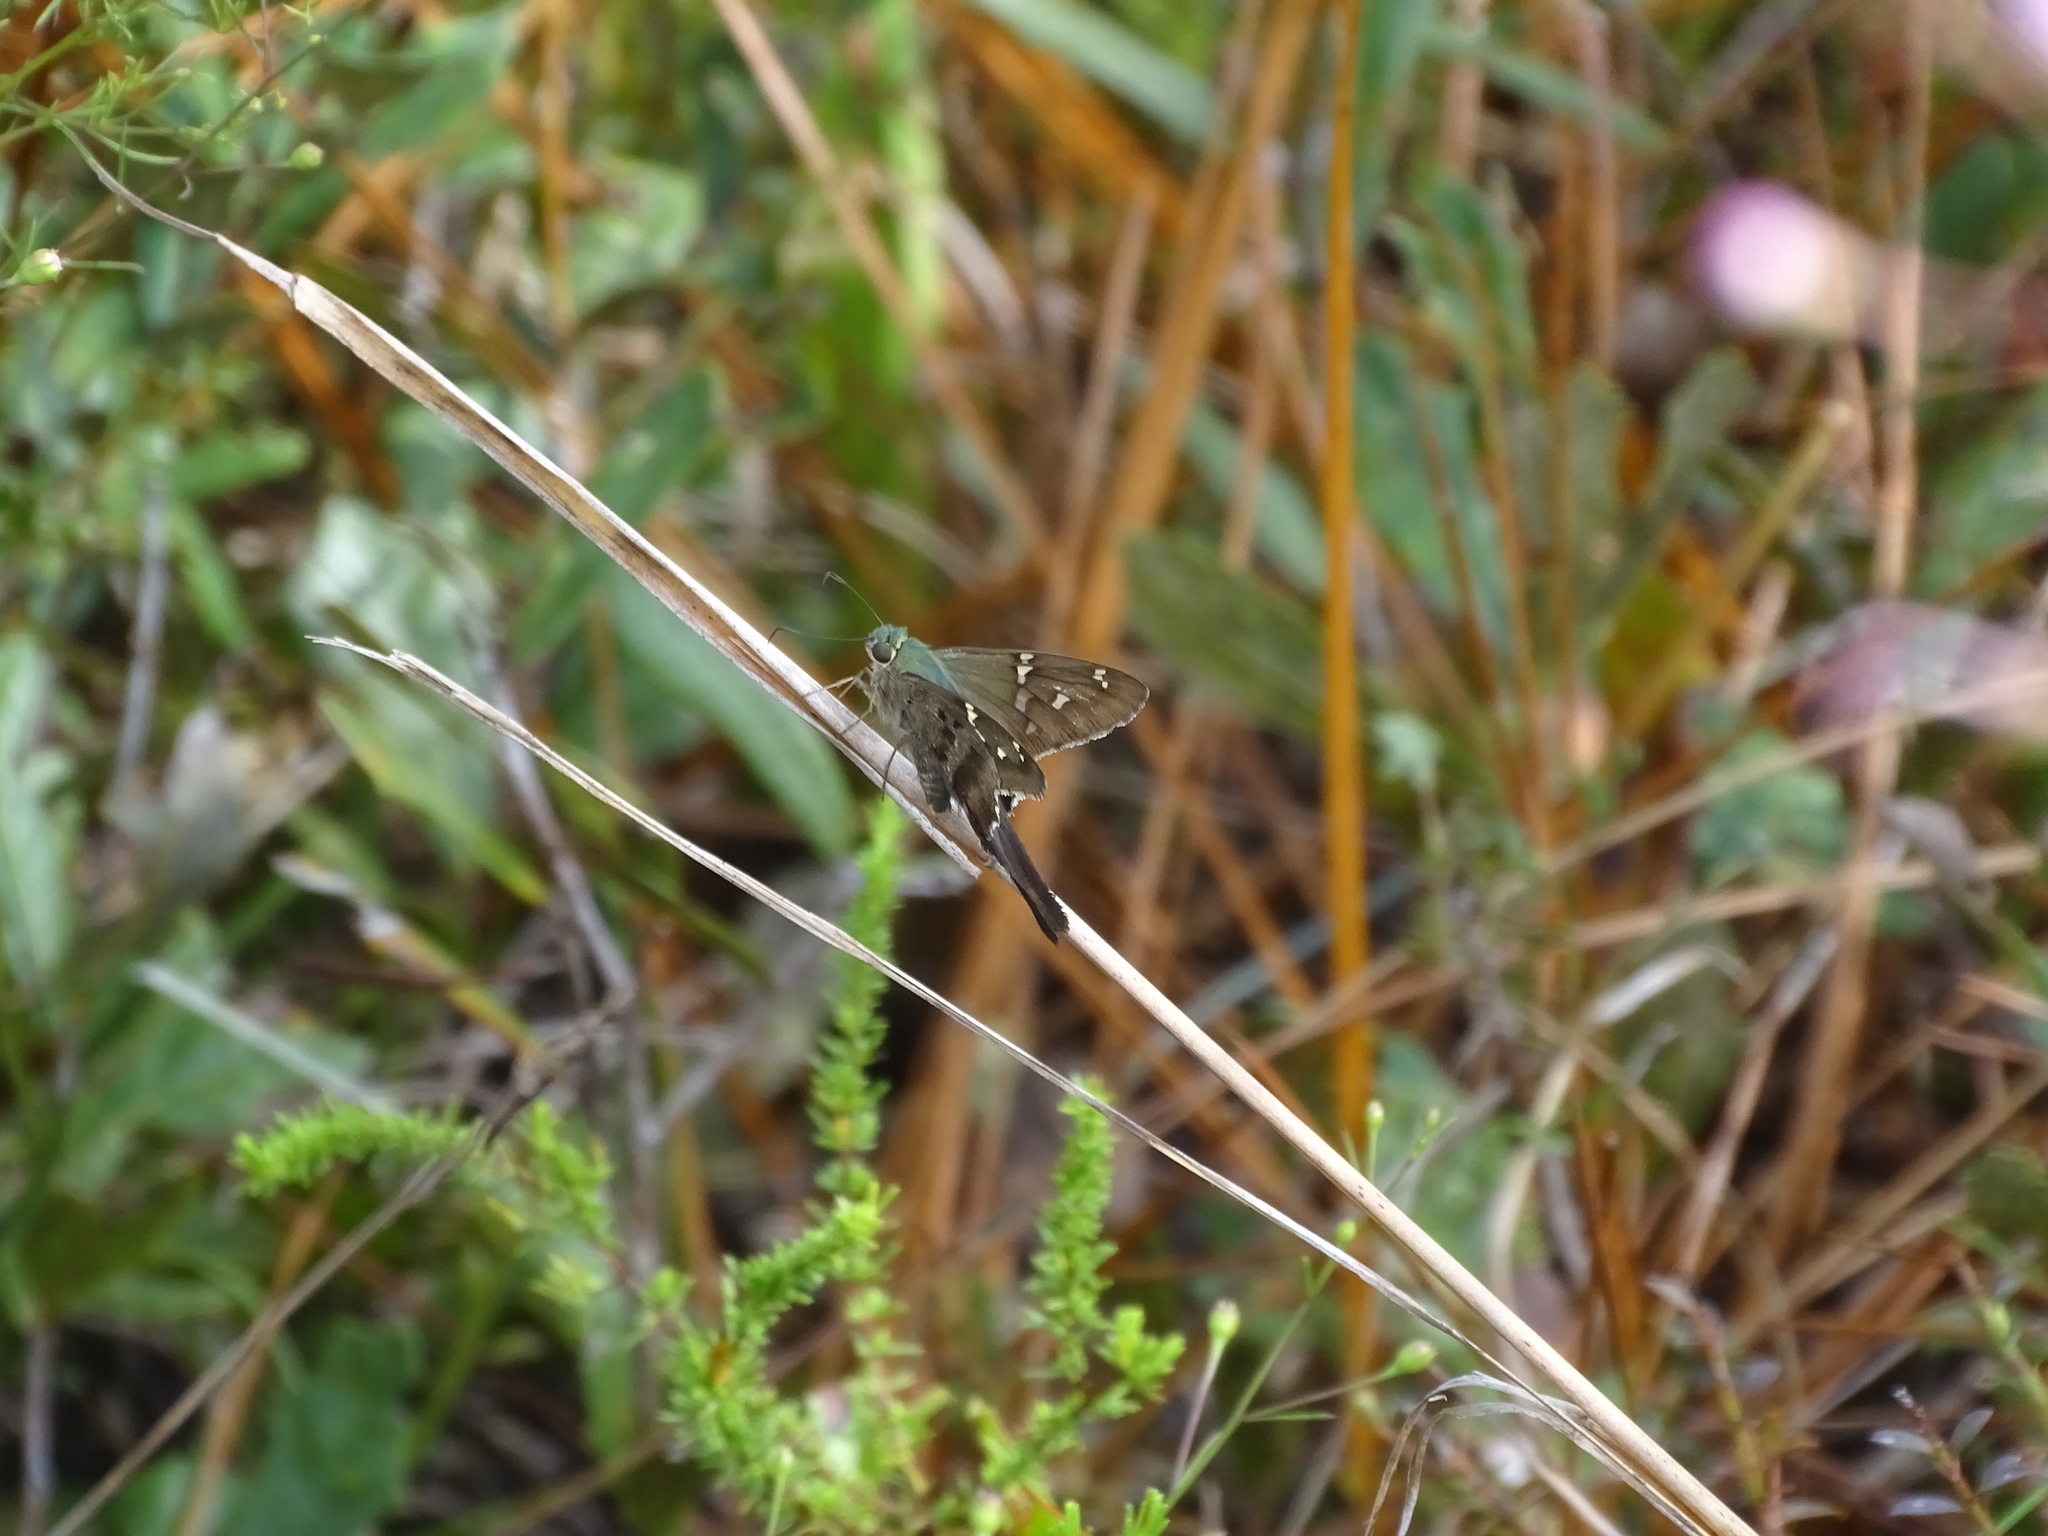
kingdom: Animalia
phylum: Arthropoda
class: Insecta
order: Lepidoptera
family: Hesperiidae
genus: Urbanus
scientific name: Urbanus proteus
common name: Long-tailed skipper
